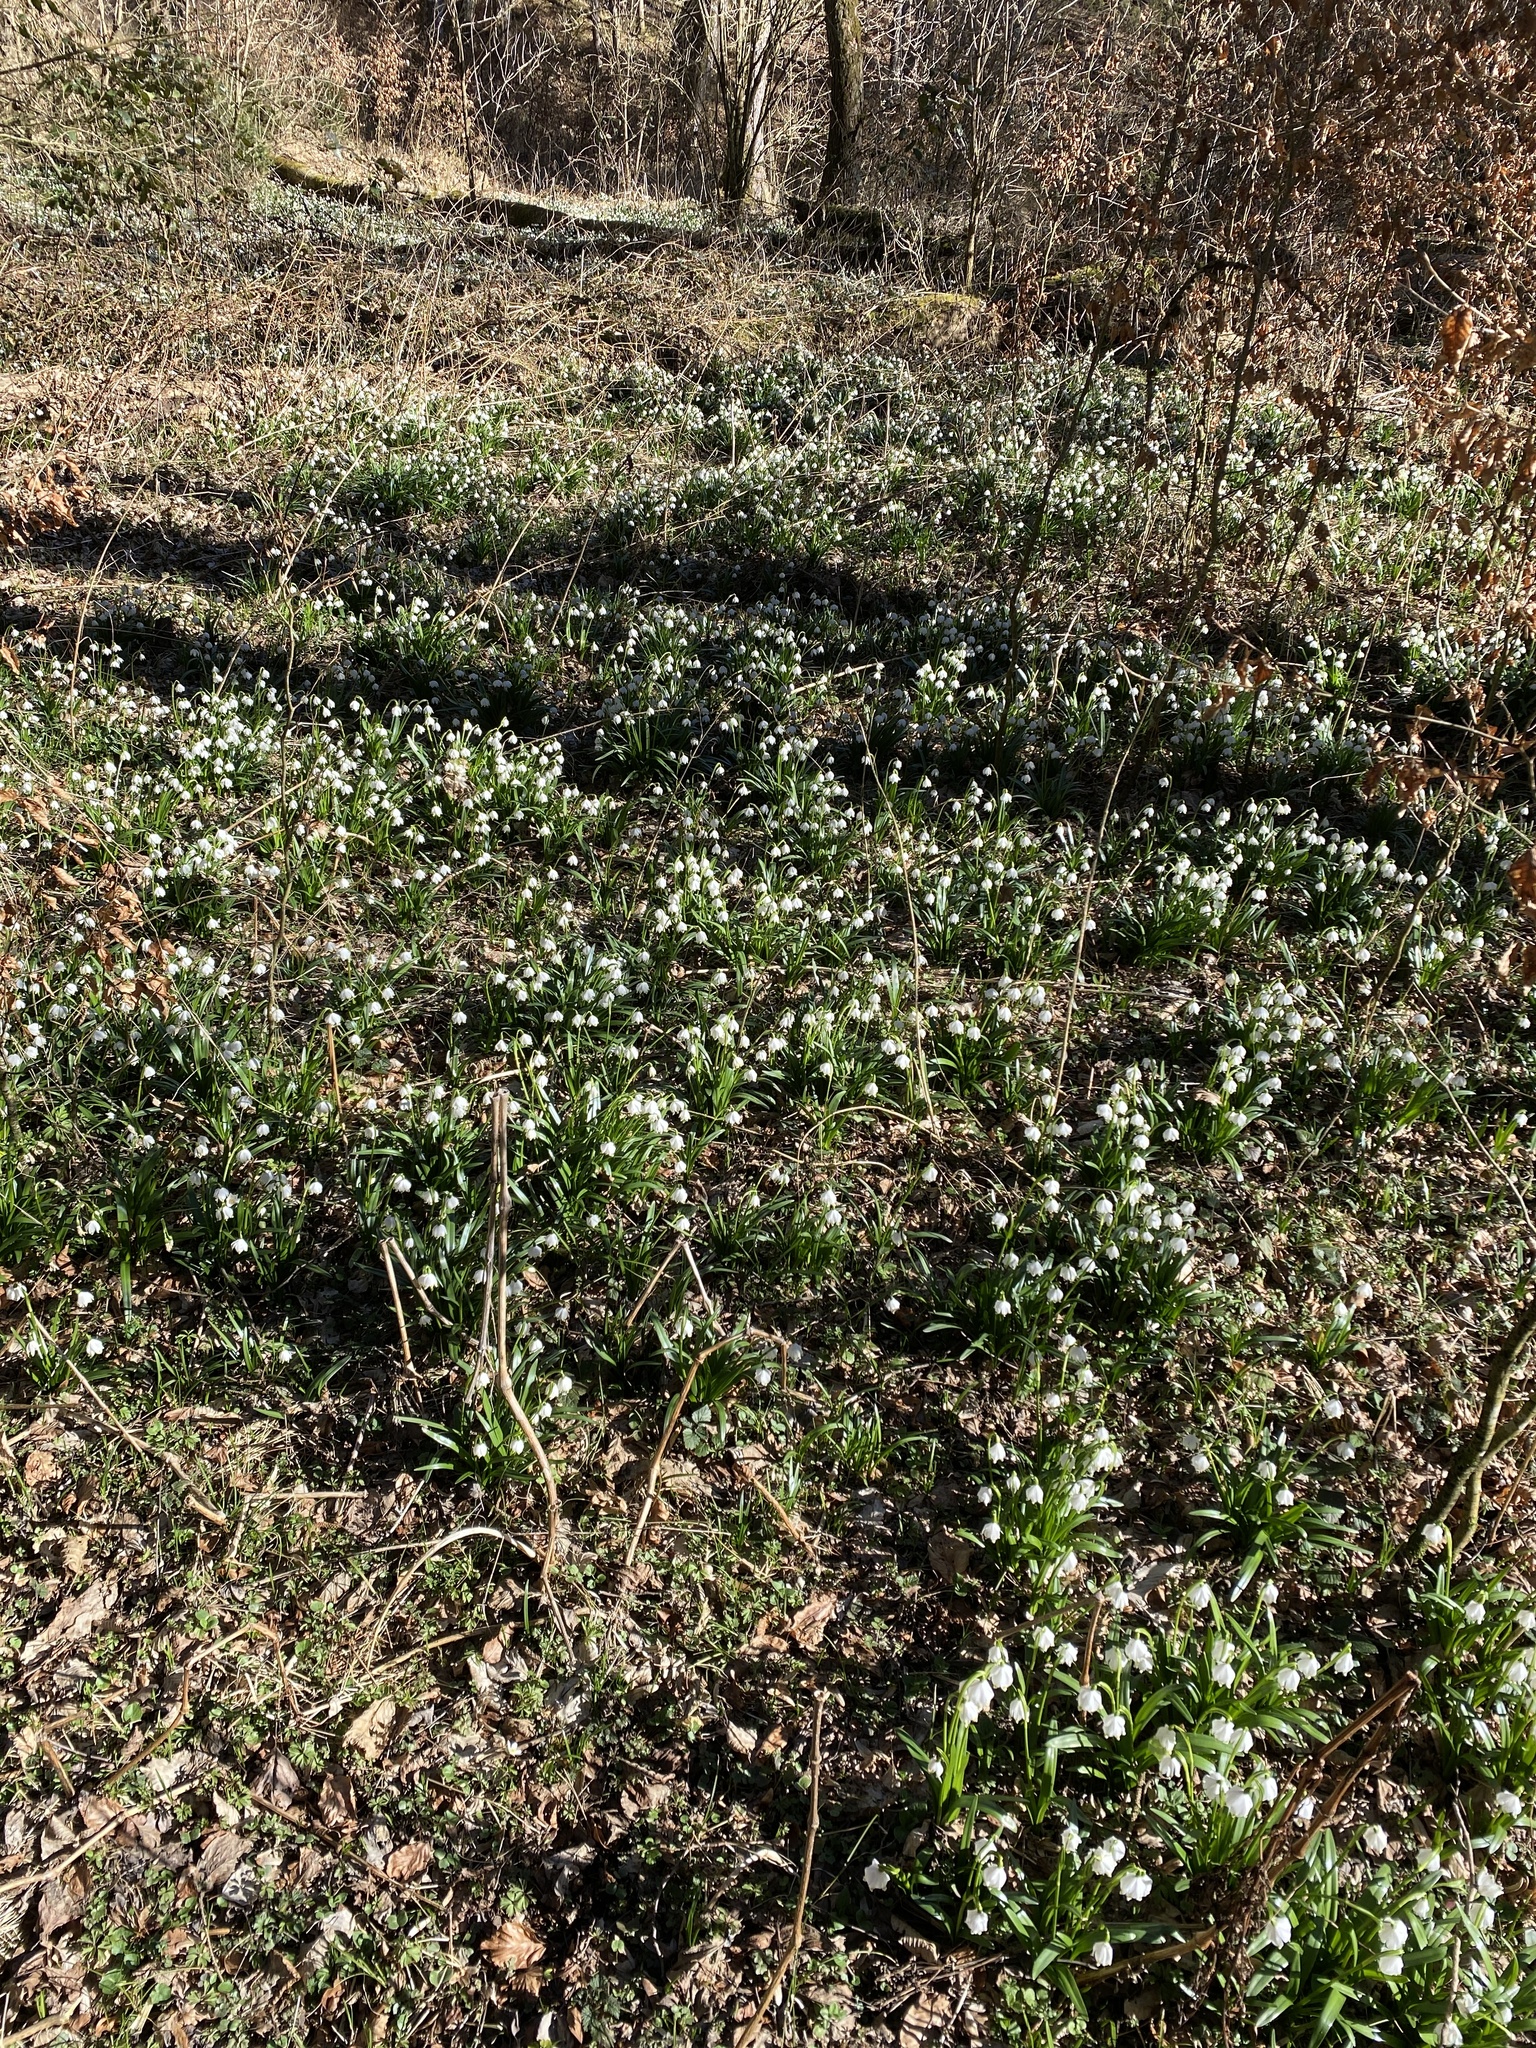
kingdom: Plantae
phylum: Tracheophyta
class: Liliopsida
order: Asparagales
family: Amaryllidaceae
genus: Leucojum
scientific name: Leucojum vernum
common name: Spring snowflake
